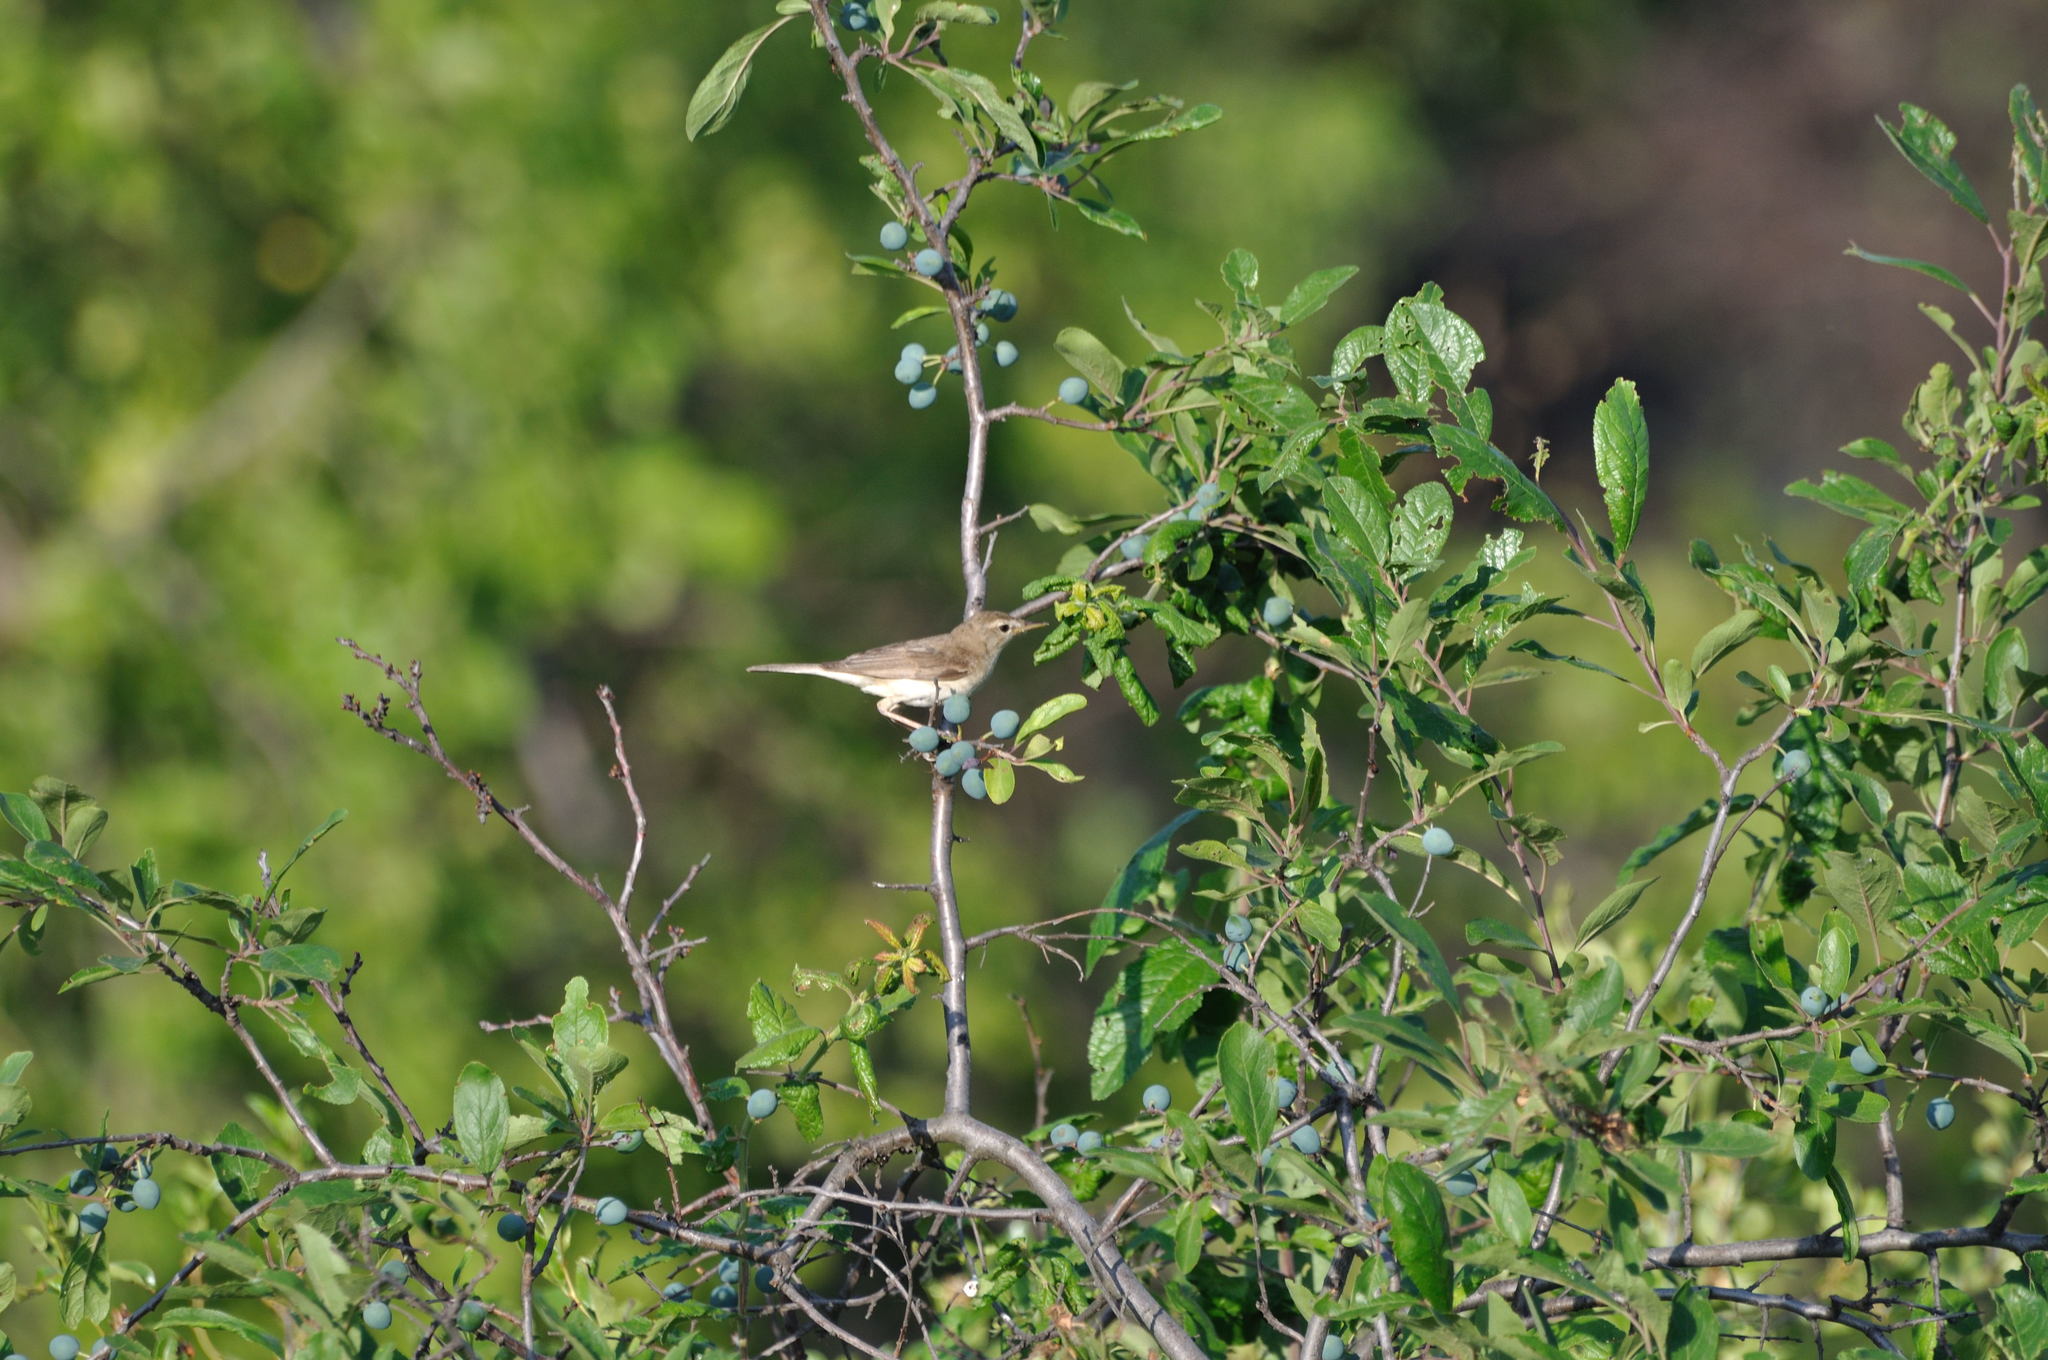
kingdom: Animalia
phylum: Chordata
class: Aves
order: Passeriformes
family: Acrocephalidae
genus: Iduna
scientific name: Iduna caligata
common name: Booted warbler
